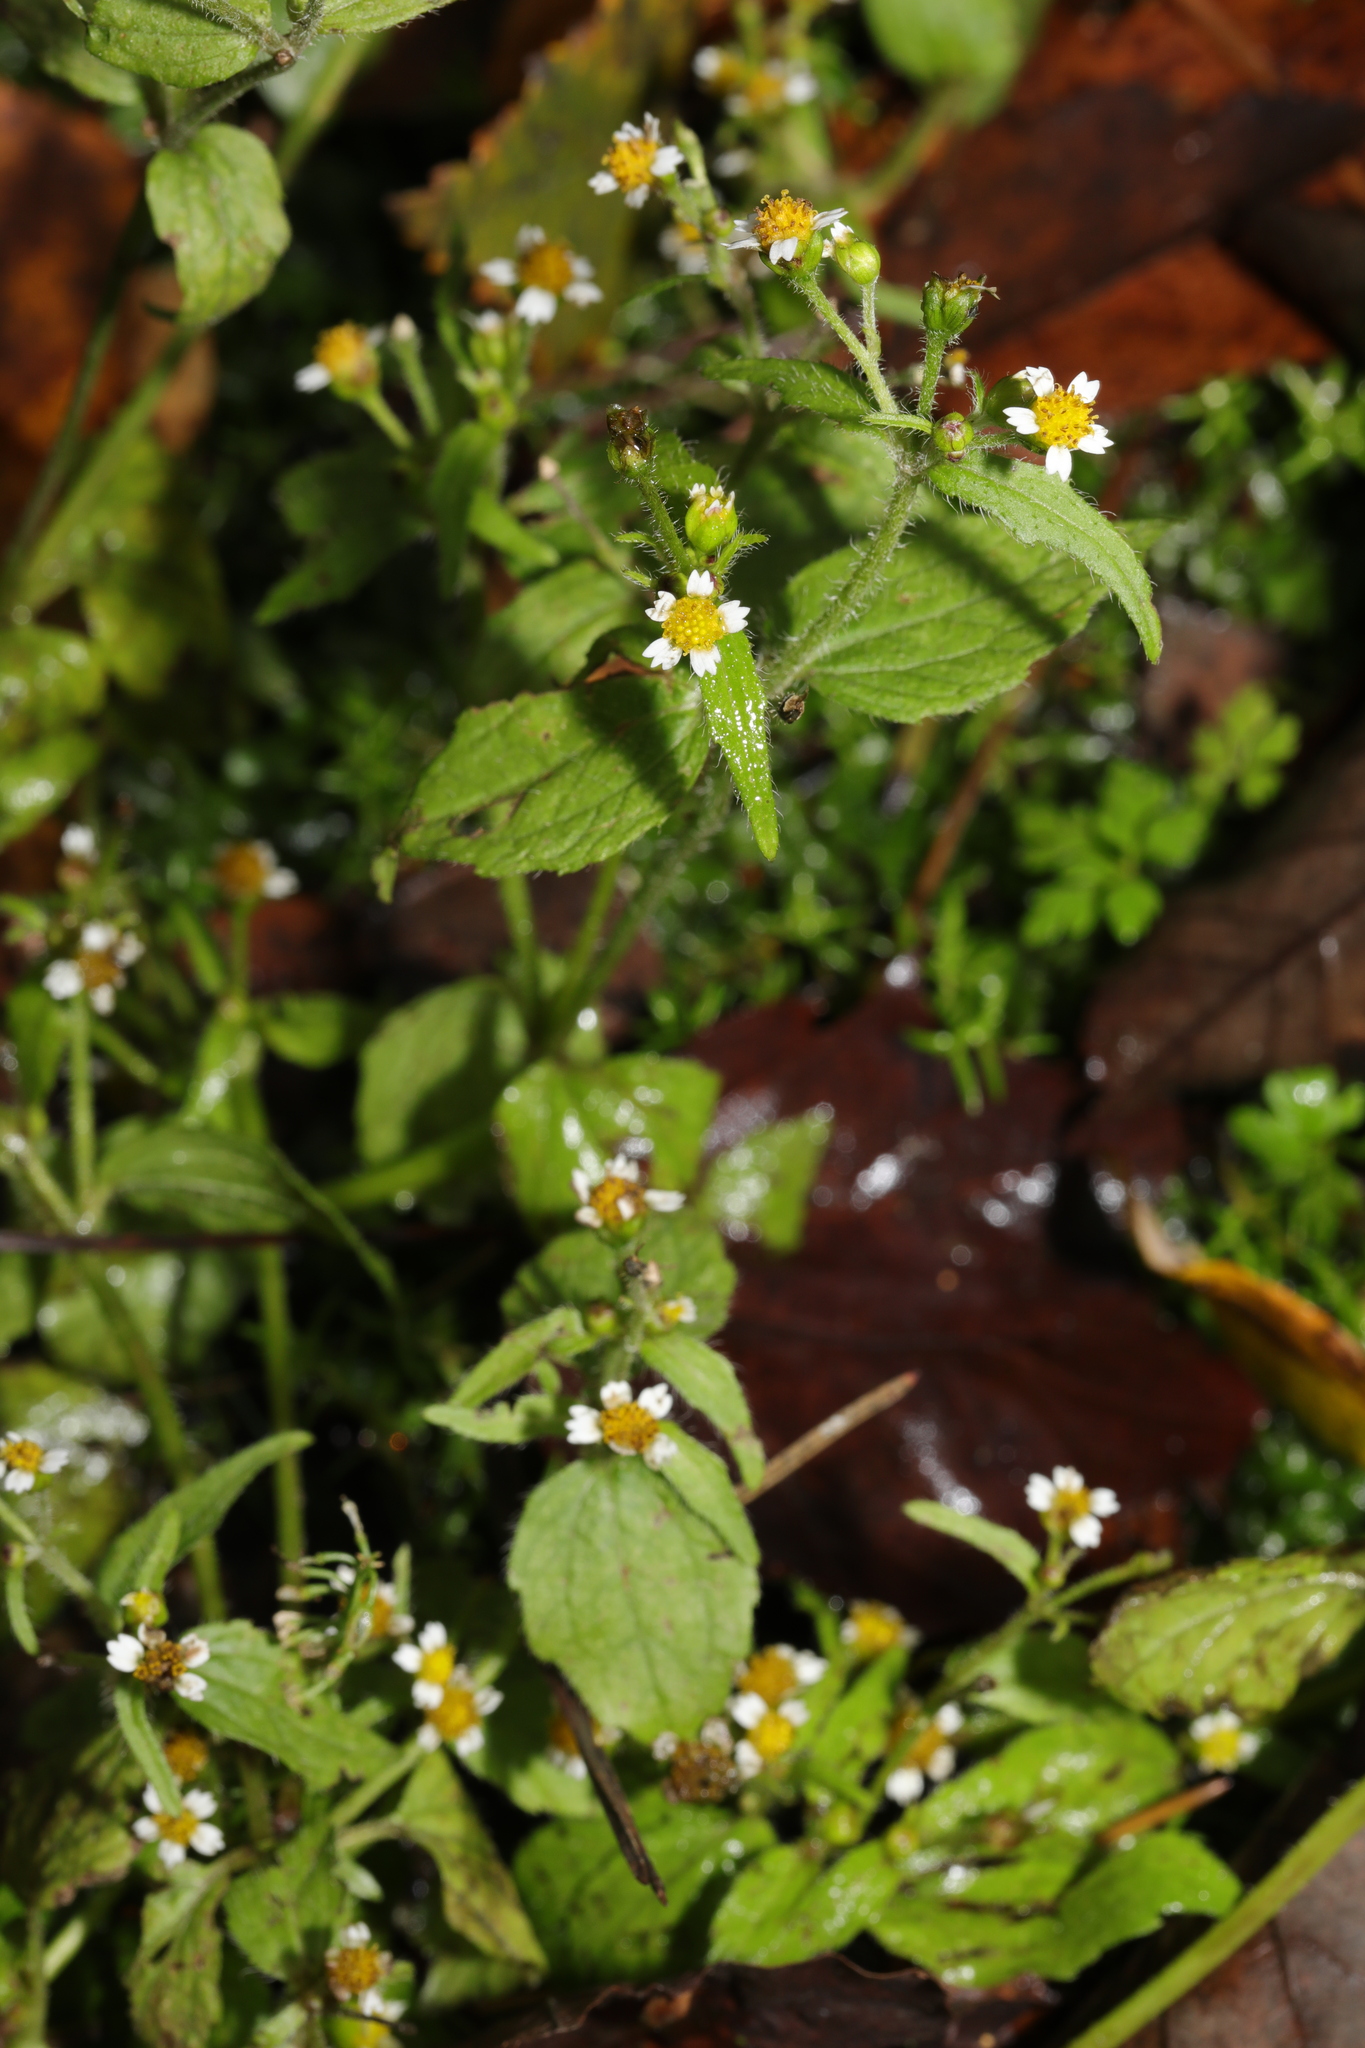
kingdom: Plantae
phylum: Tracheophyta
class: Magnoliopsida
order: Asterales
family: Asteraceae
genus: Galinsoga
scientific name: Galinsoga quadriradiata
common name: Shaggy soldier
